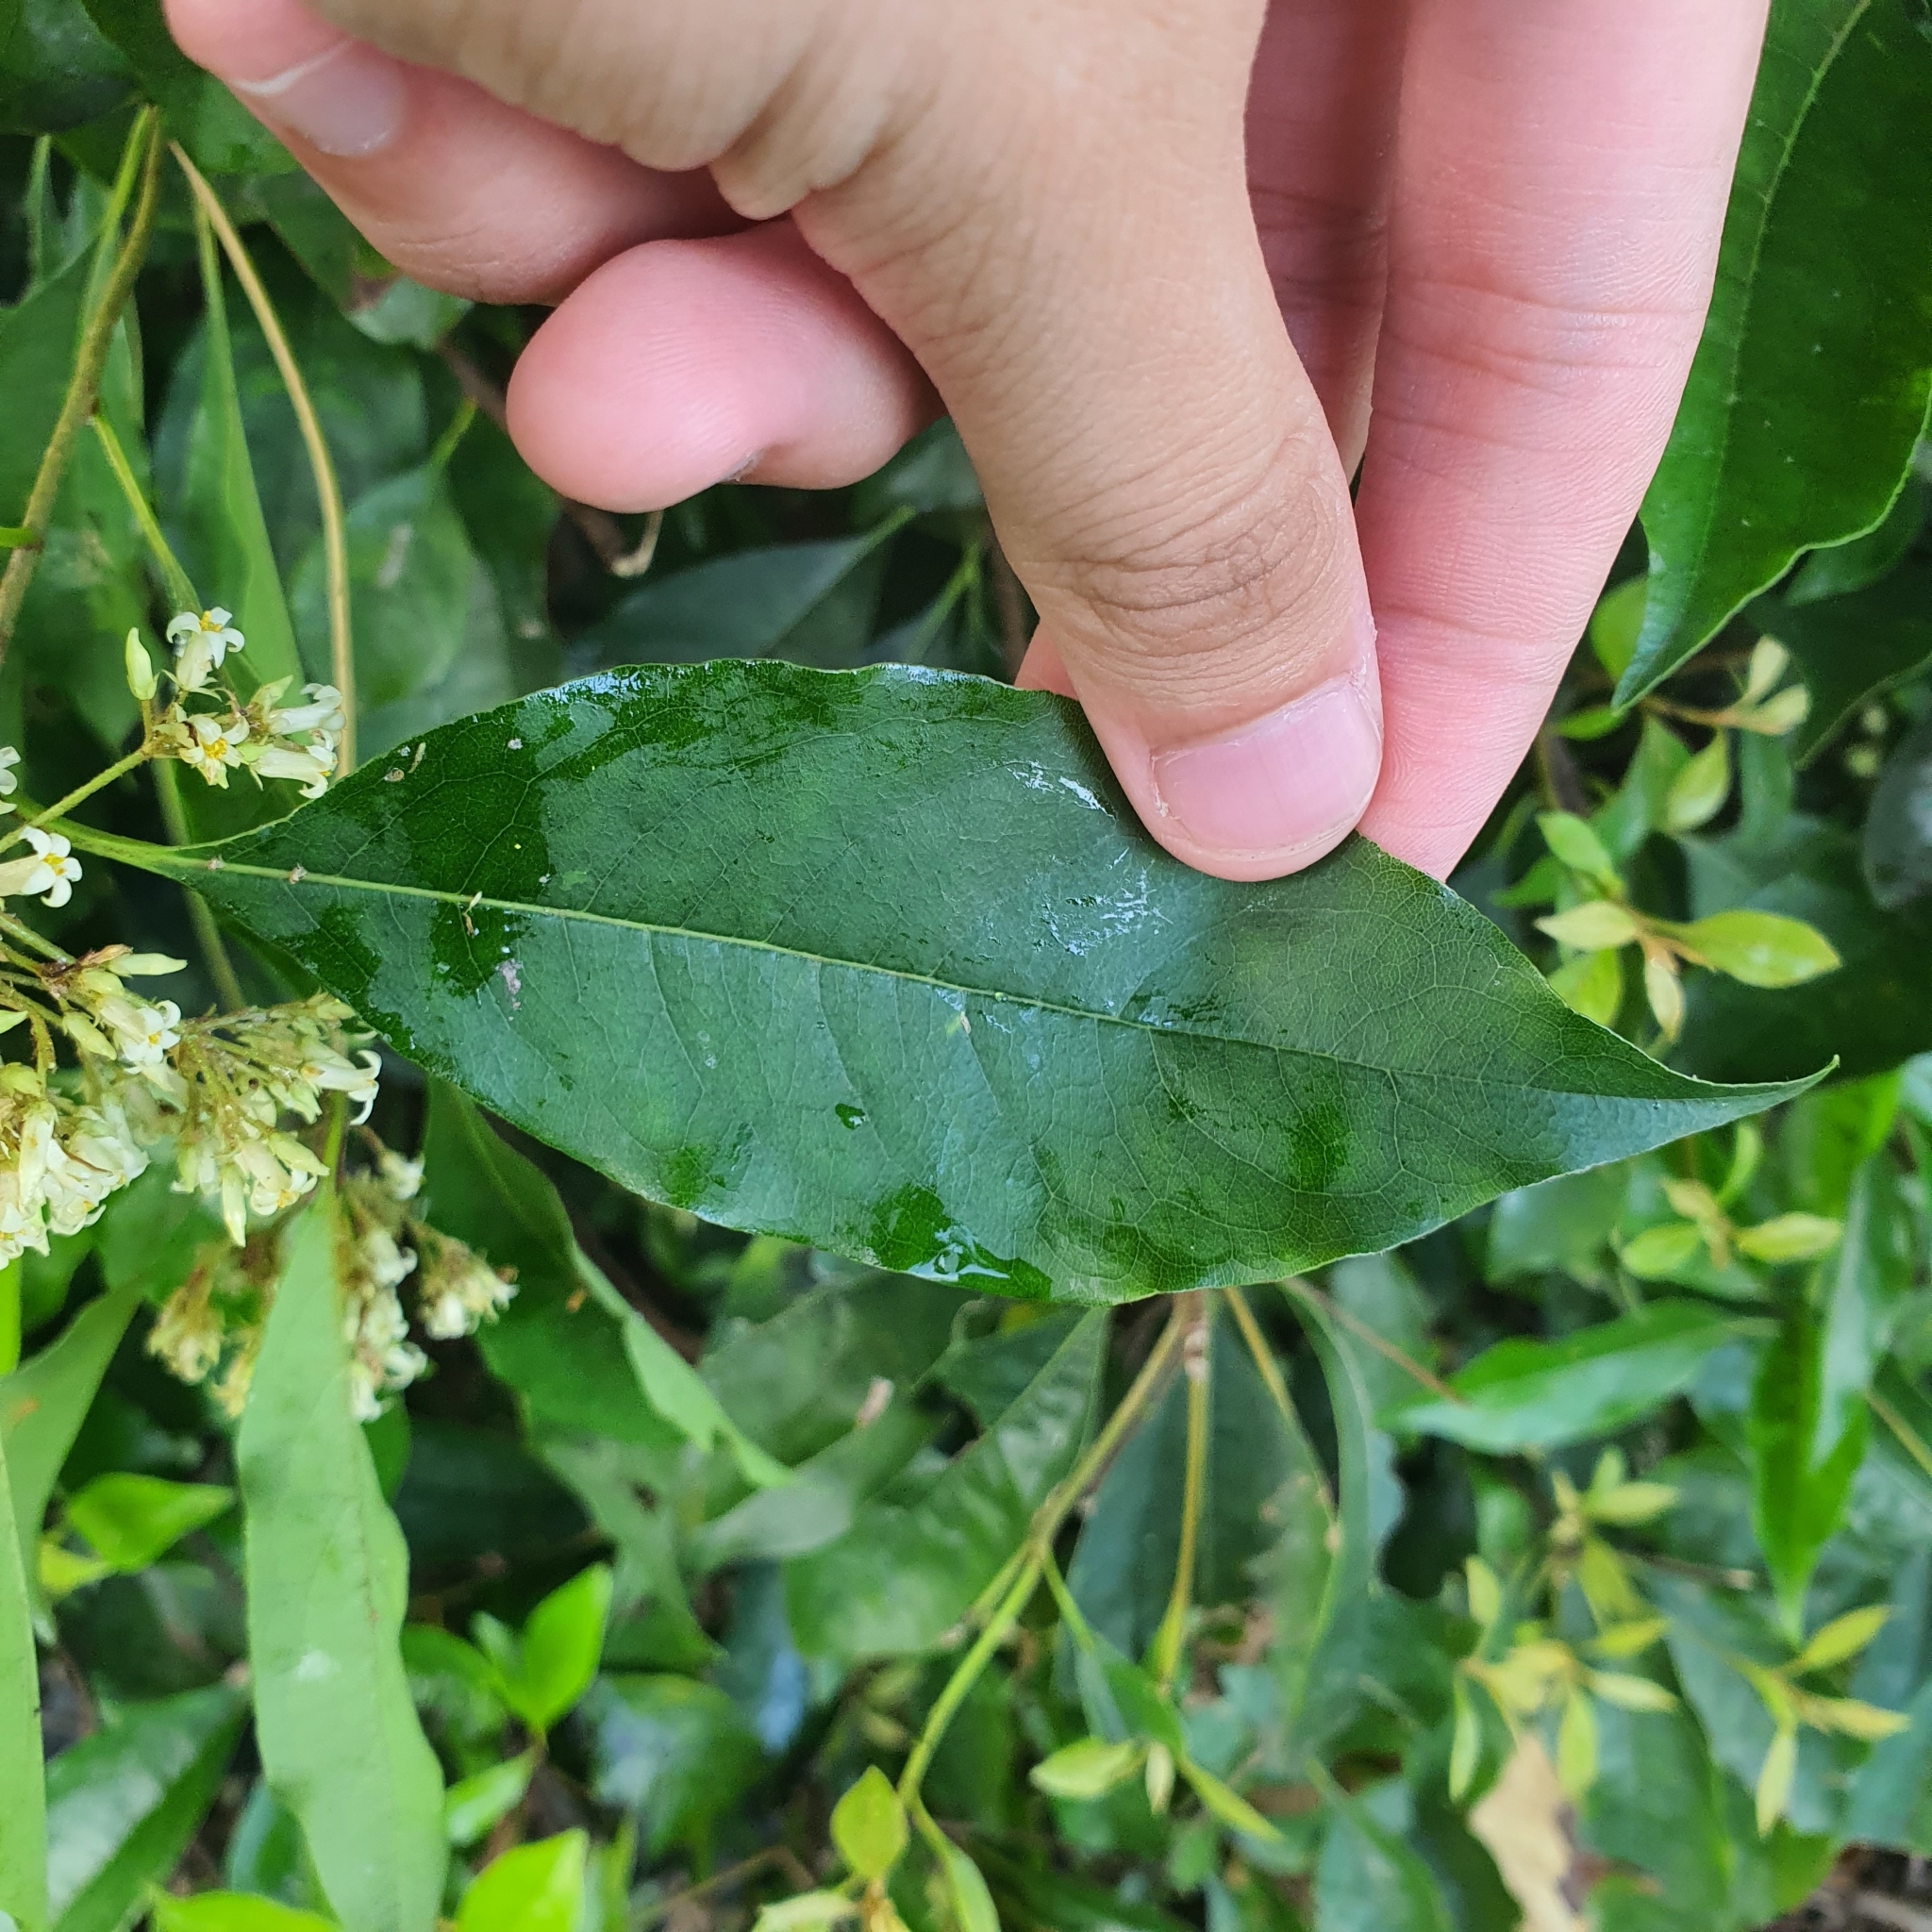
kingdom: Plantae
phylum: Tracheophyta
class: Magnoliopsida
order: Apiales
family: Pittosporaceae
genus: Pittosporum
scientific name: Pittosporum ridleyi
